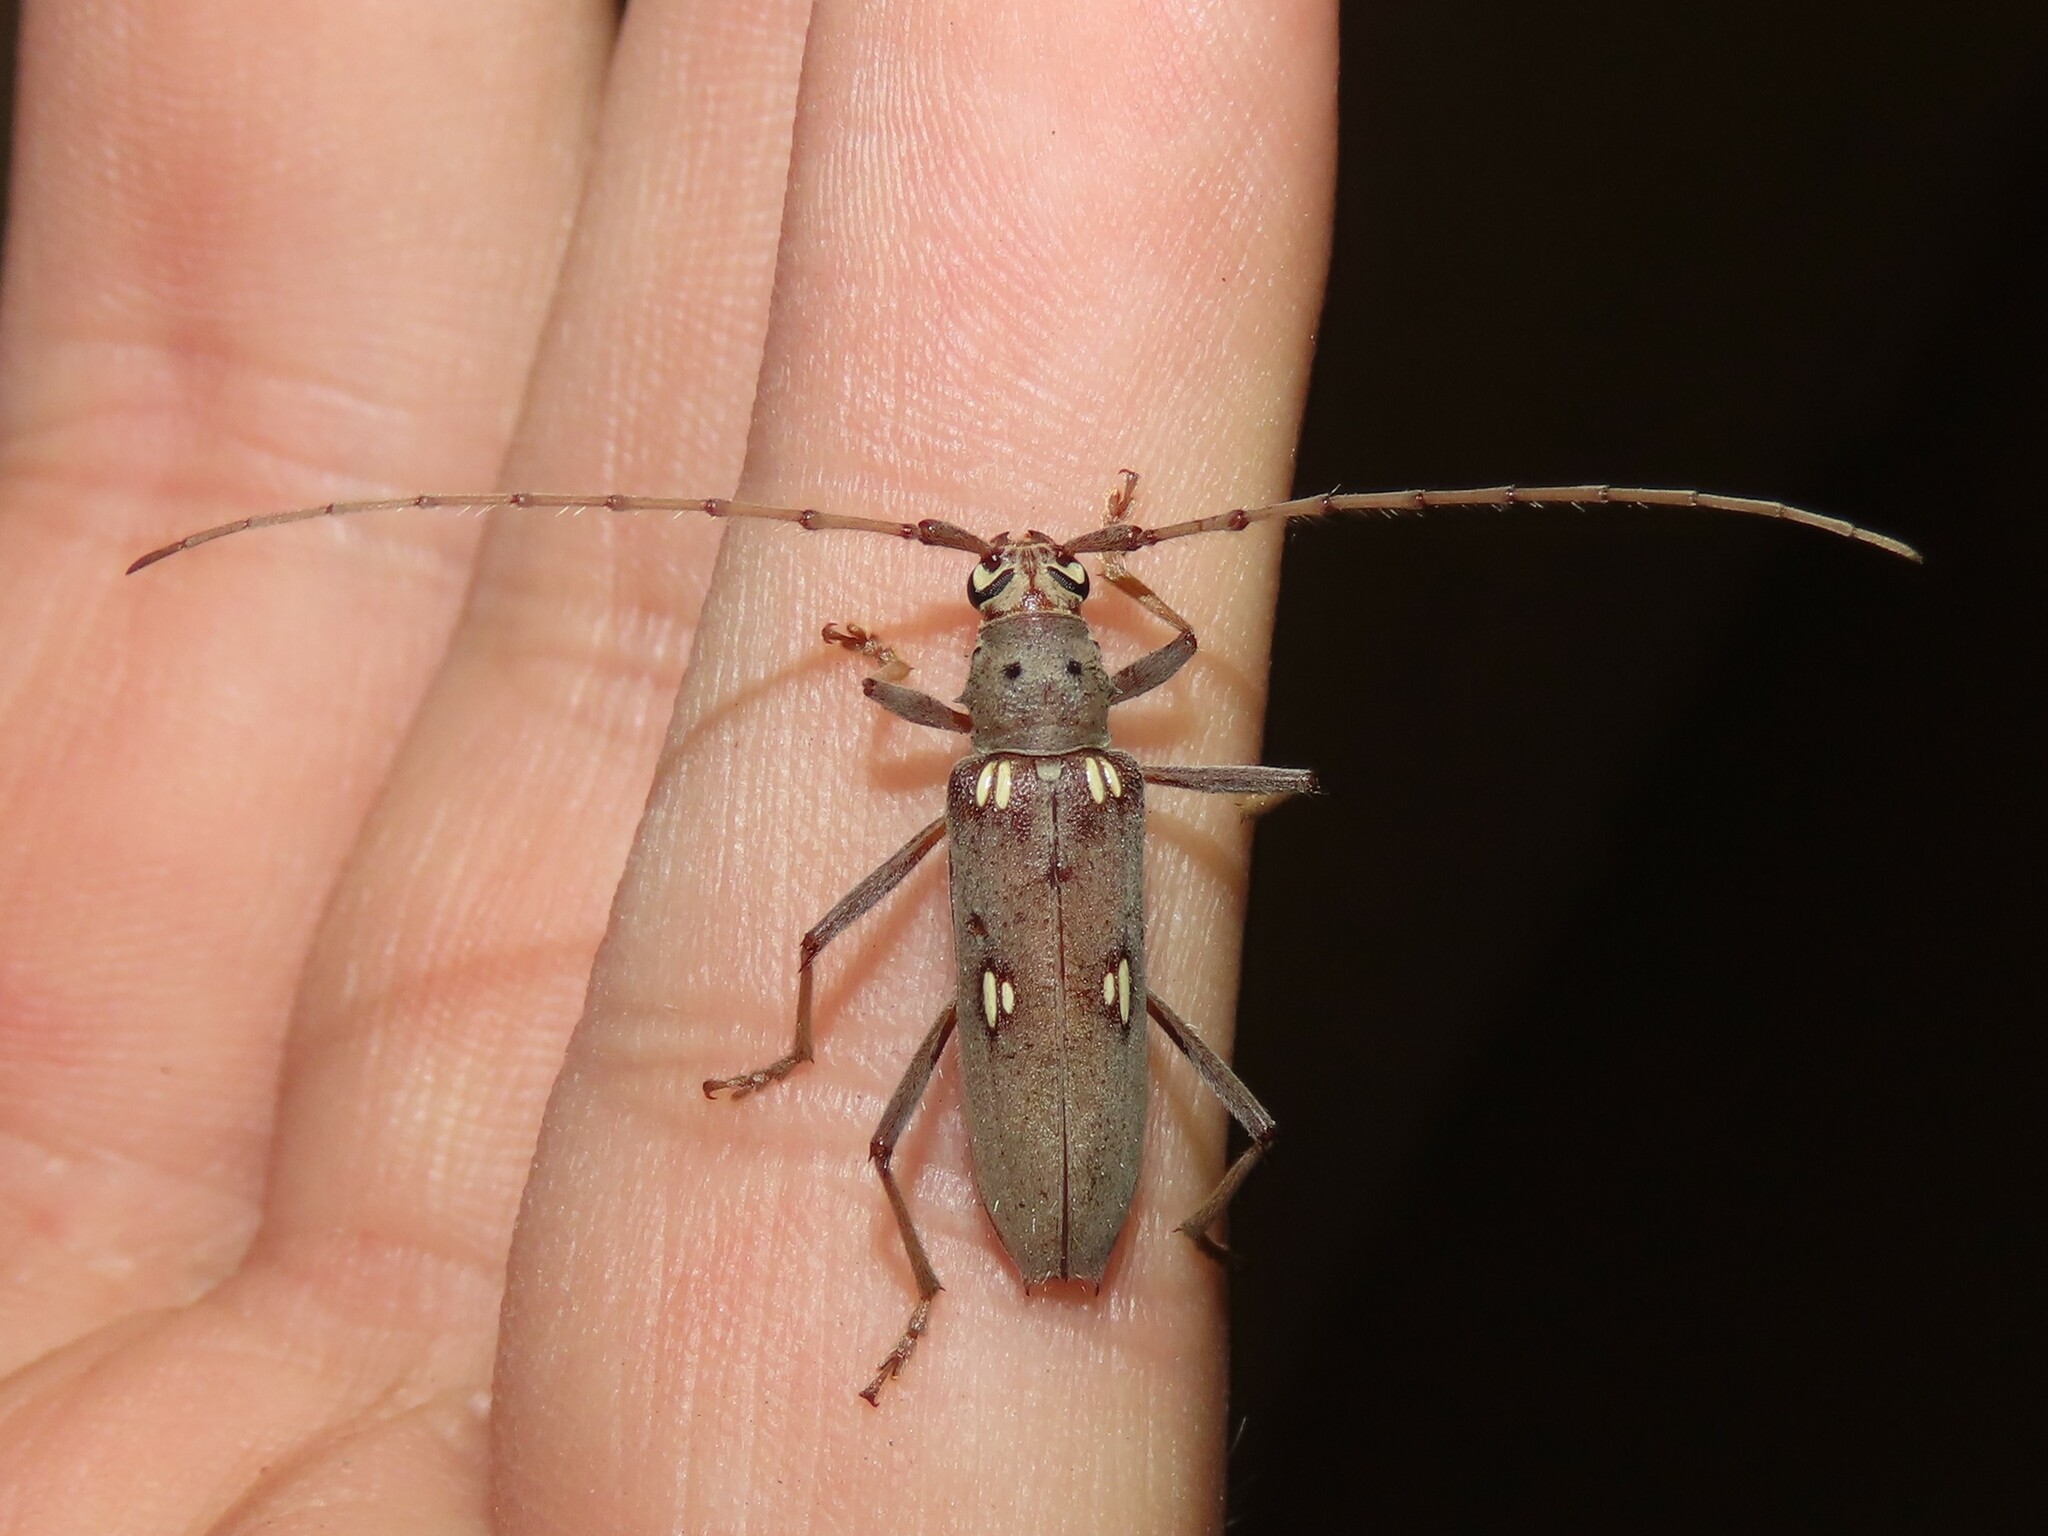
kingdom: Animalia
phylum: Arthropoda
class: Insecta
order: Coleoptera
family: Cerambycidae
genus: Eburia
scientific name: Eburia distincta
